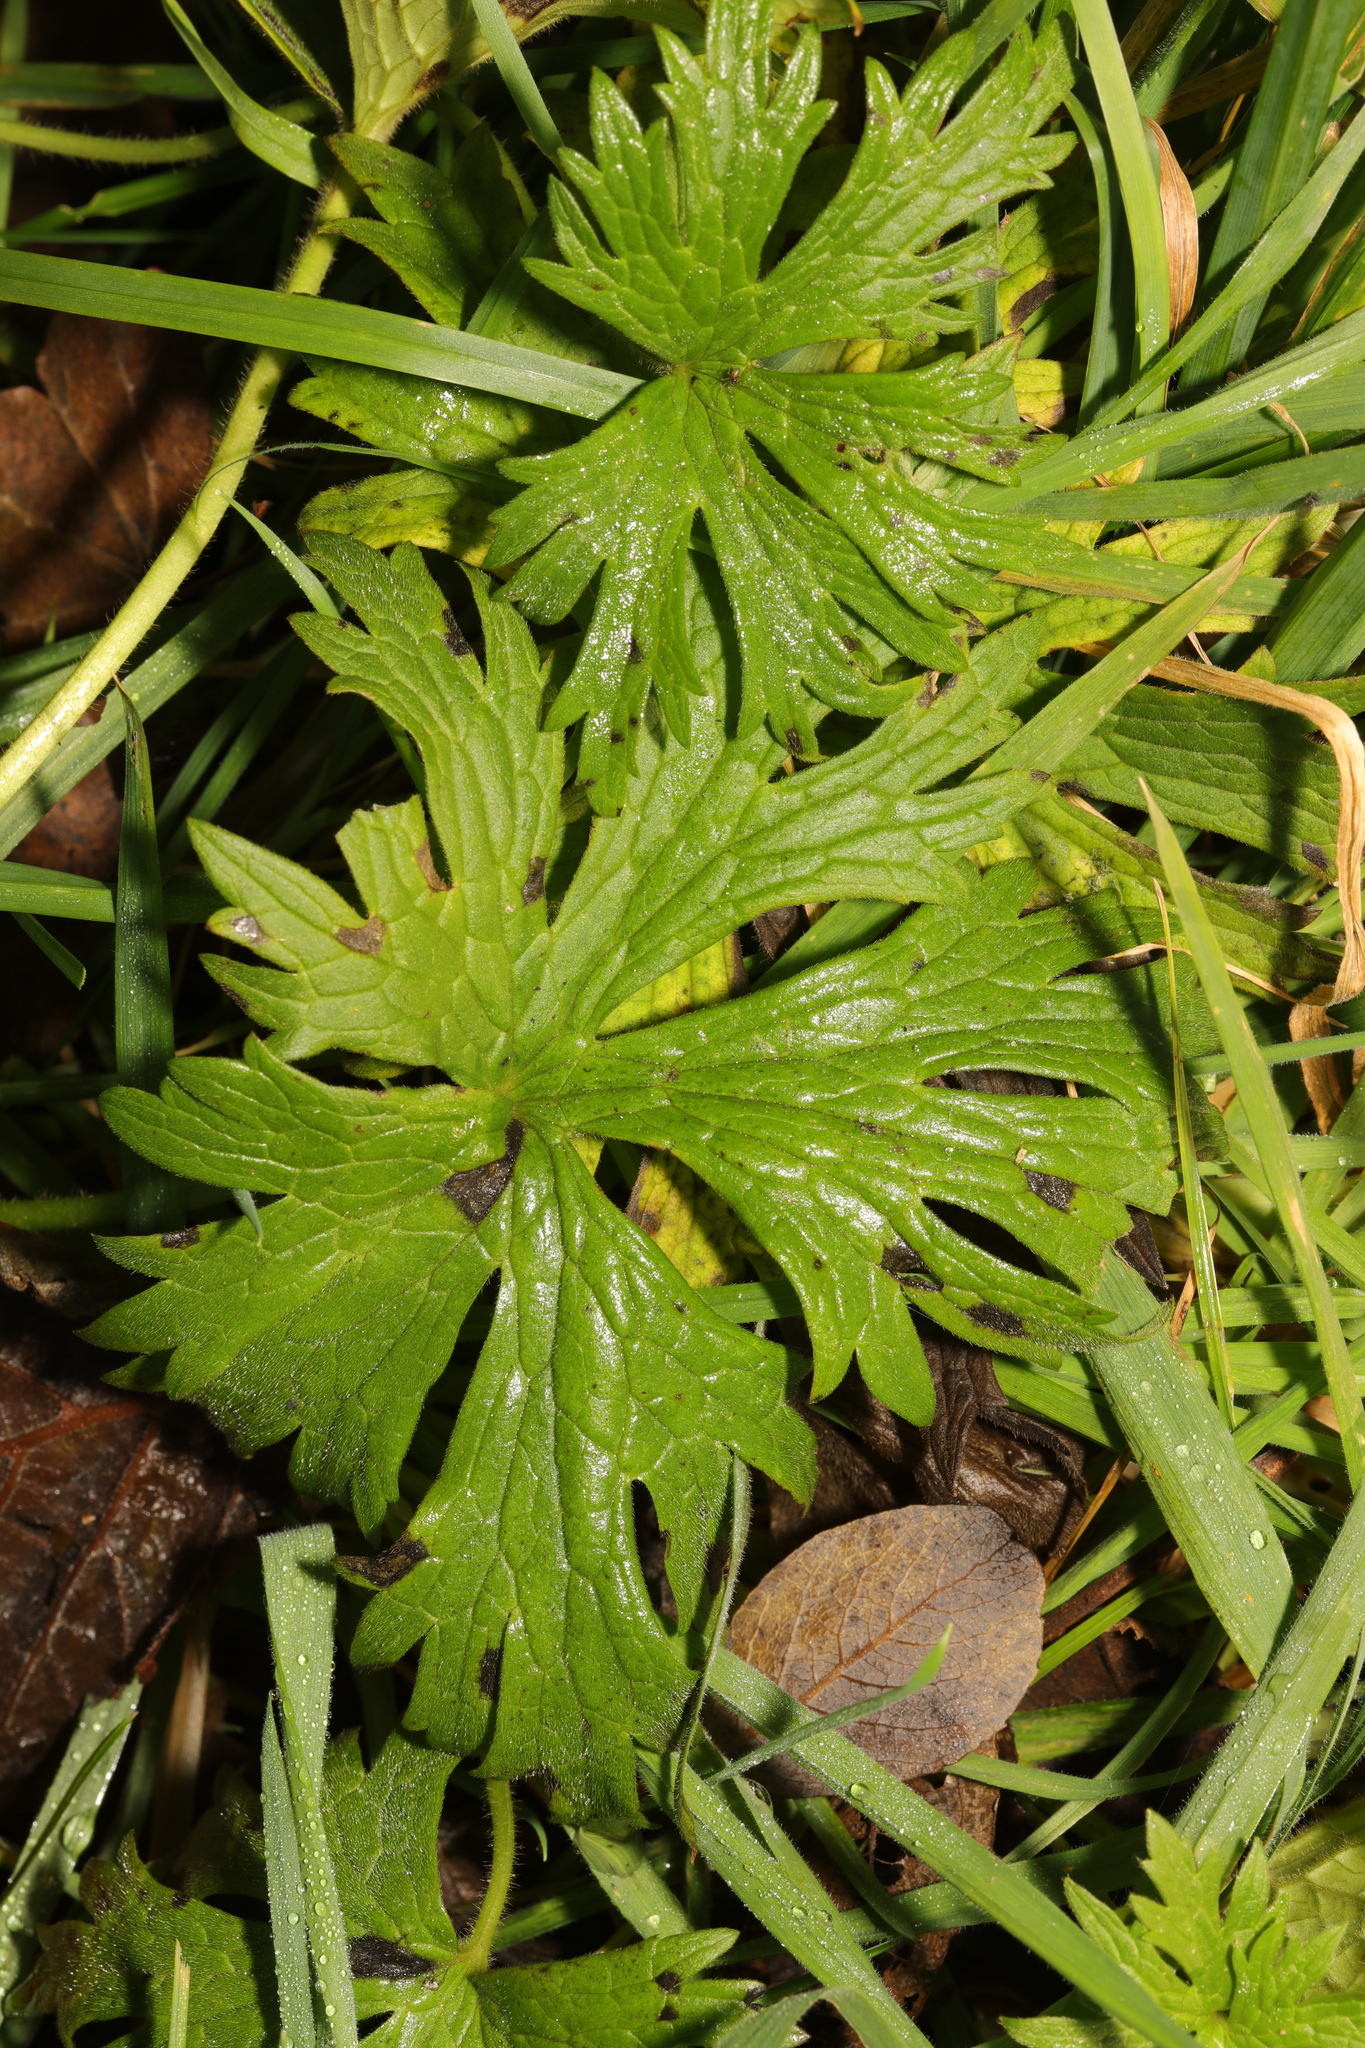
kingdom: Plantae
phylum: Tracheophyta
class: Magnoliopsida
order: Ranunculales
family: Ranunculaceae
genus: Ranunculus
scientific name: Ranunculus acris
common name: Meadow buttercup
